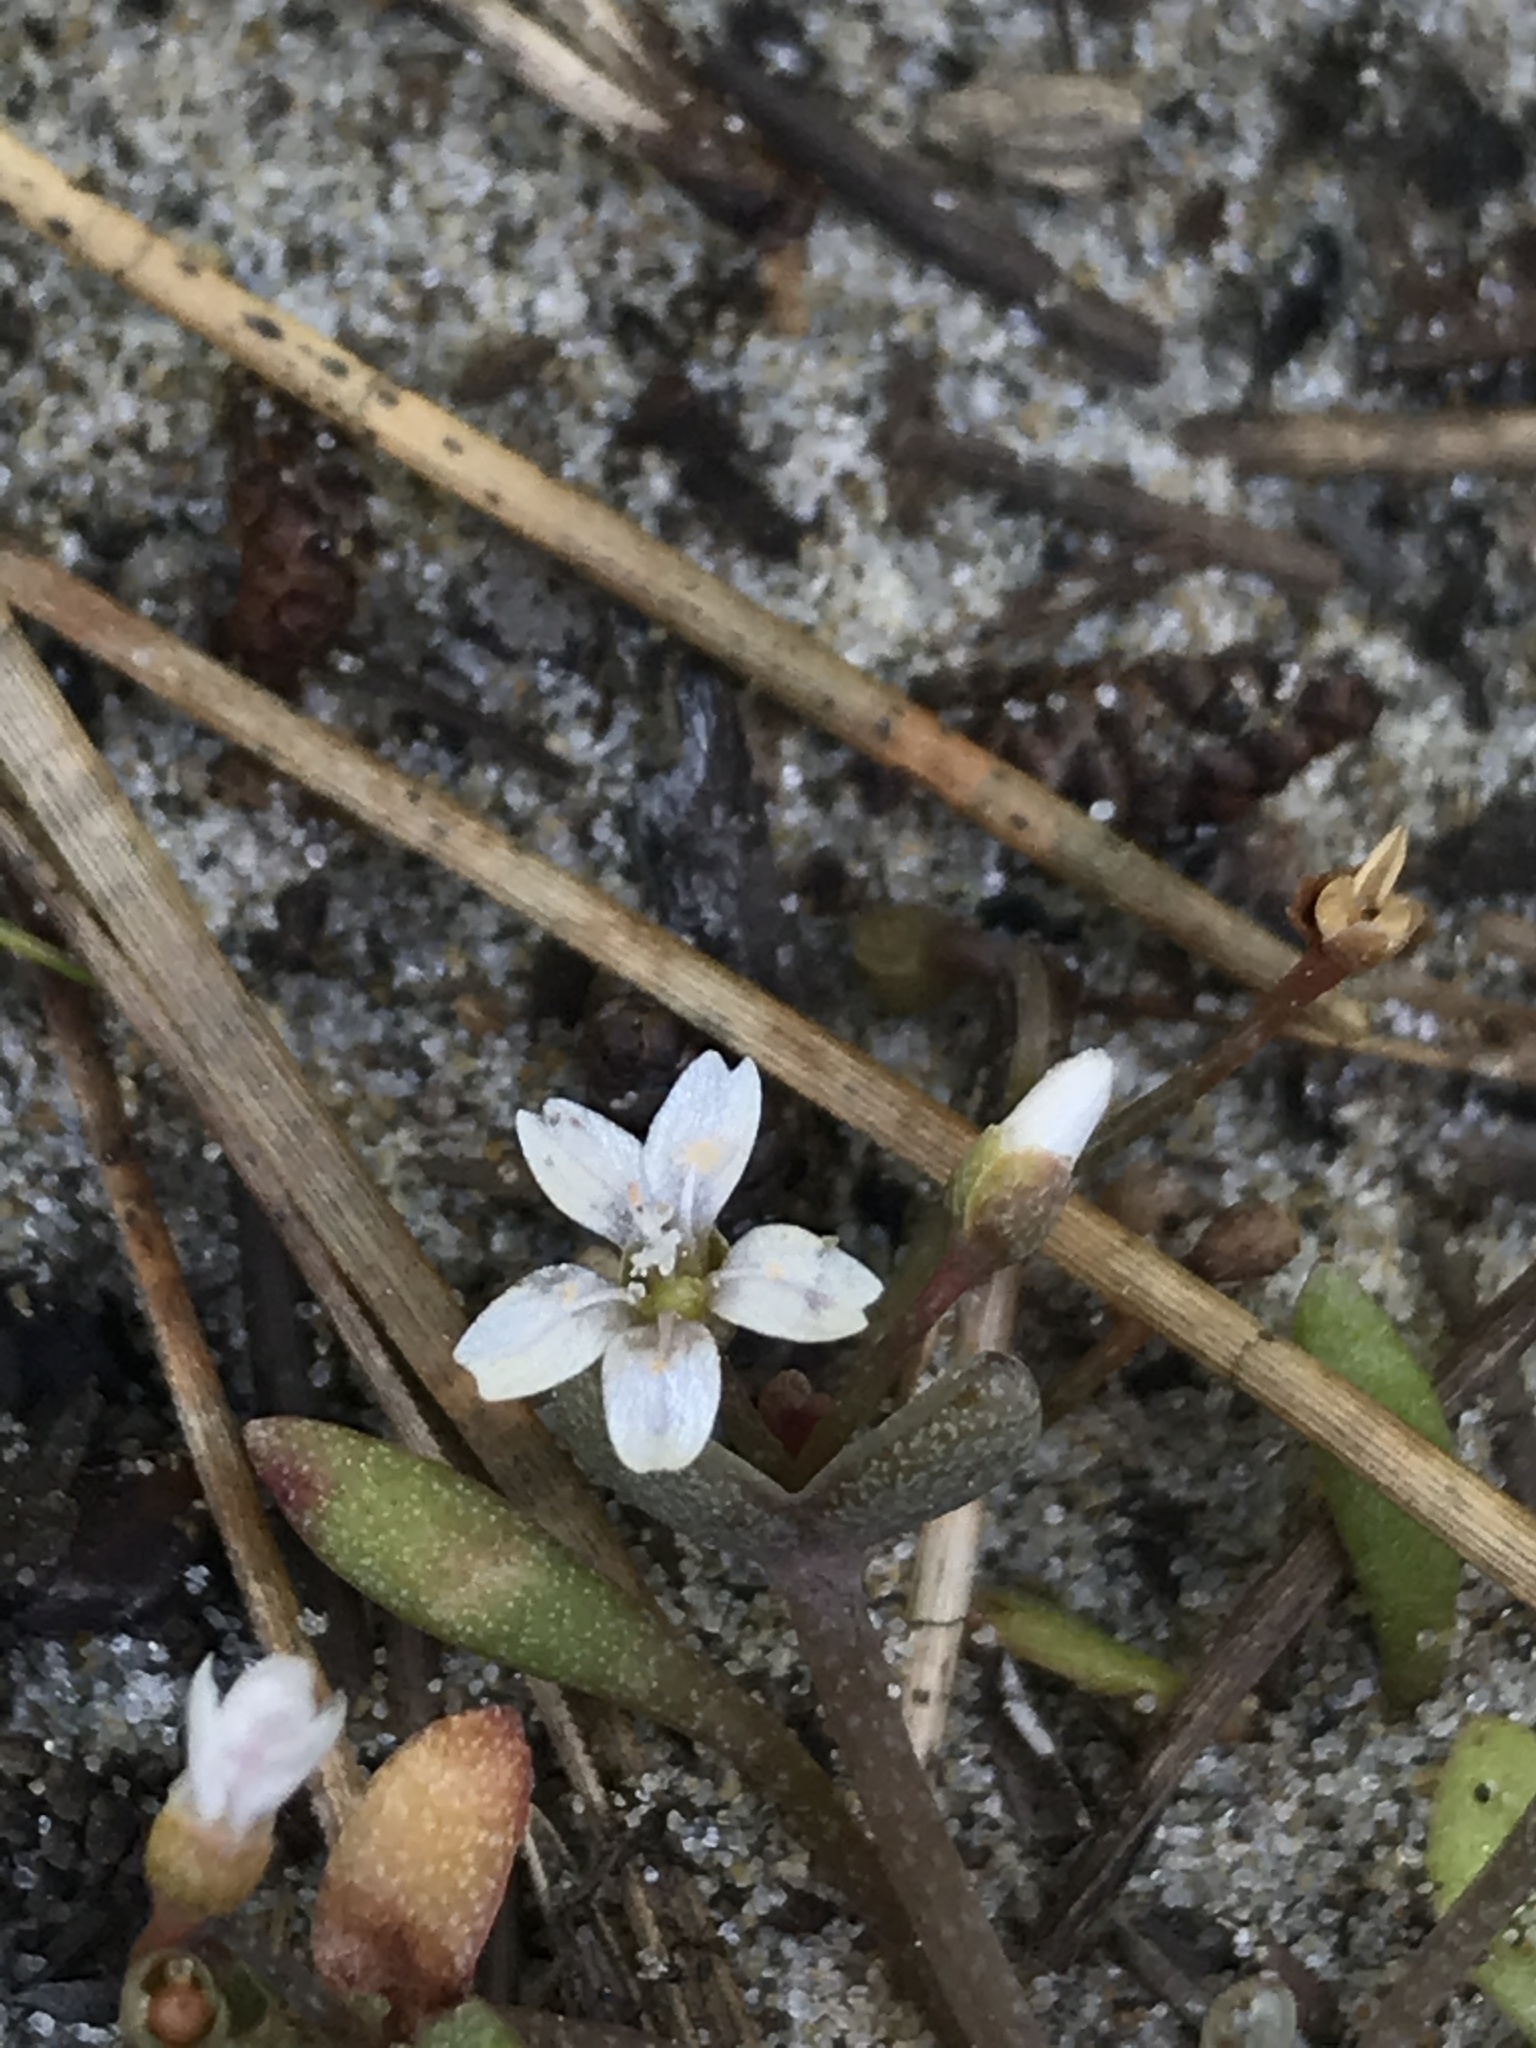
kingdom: Plantae
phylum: Tracheophyta
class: Magnoliopsida
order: Caryophyllales
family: Montiaceae
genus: Claytonia
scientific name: Claytonia exigua
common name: Pale spring beauty
